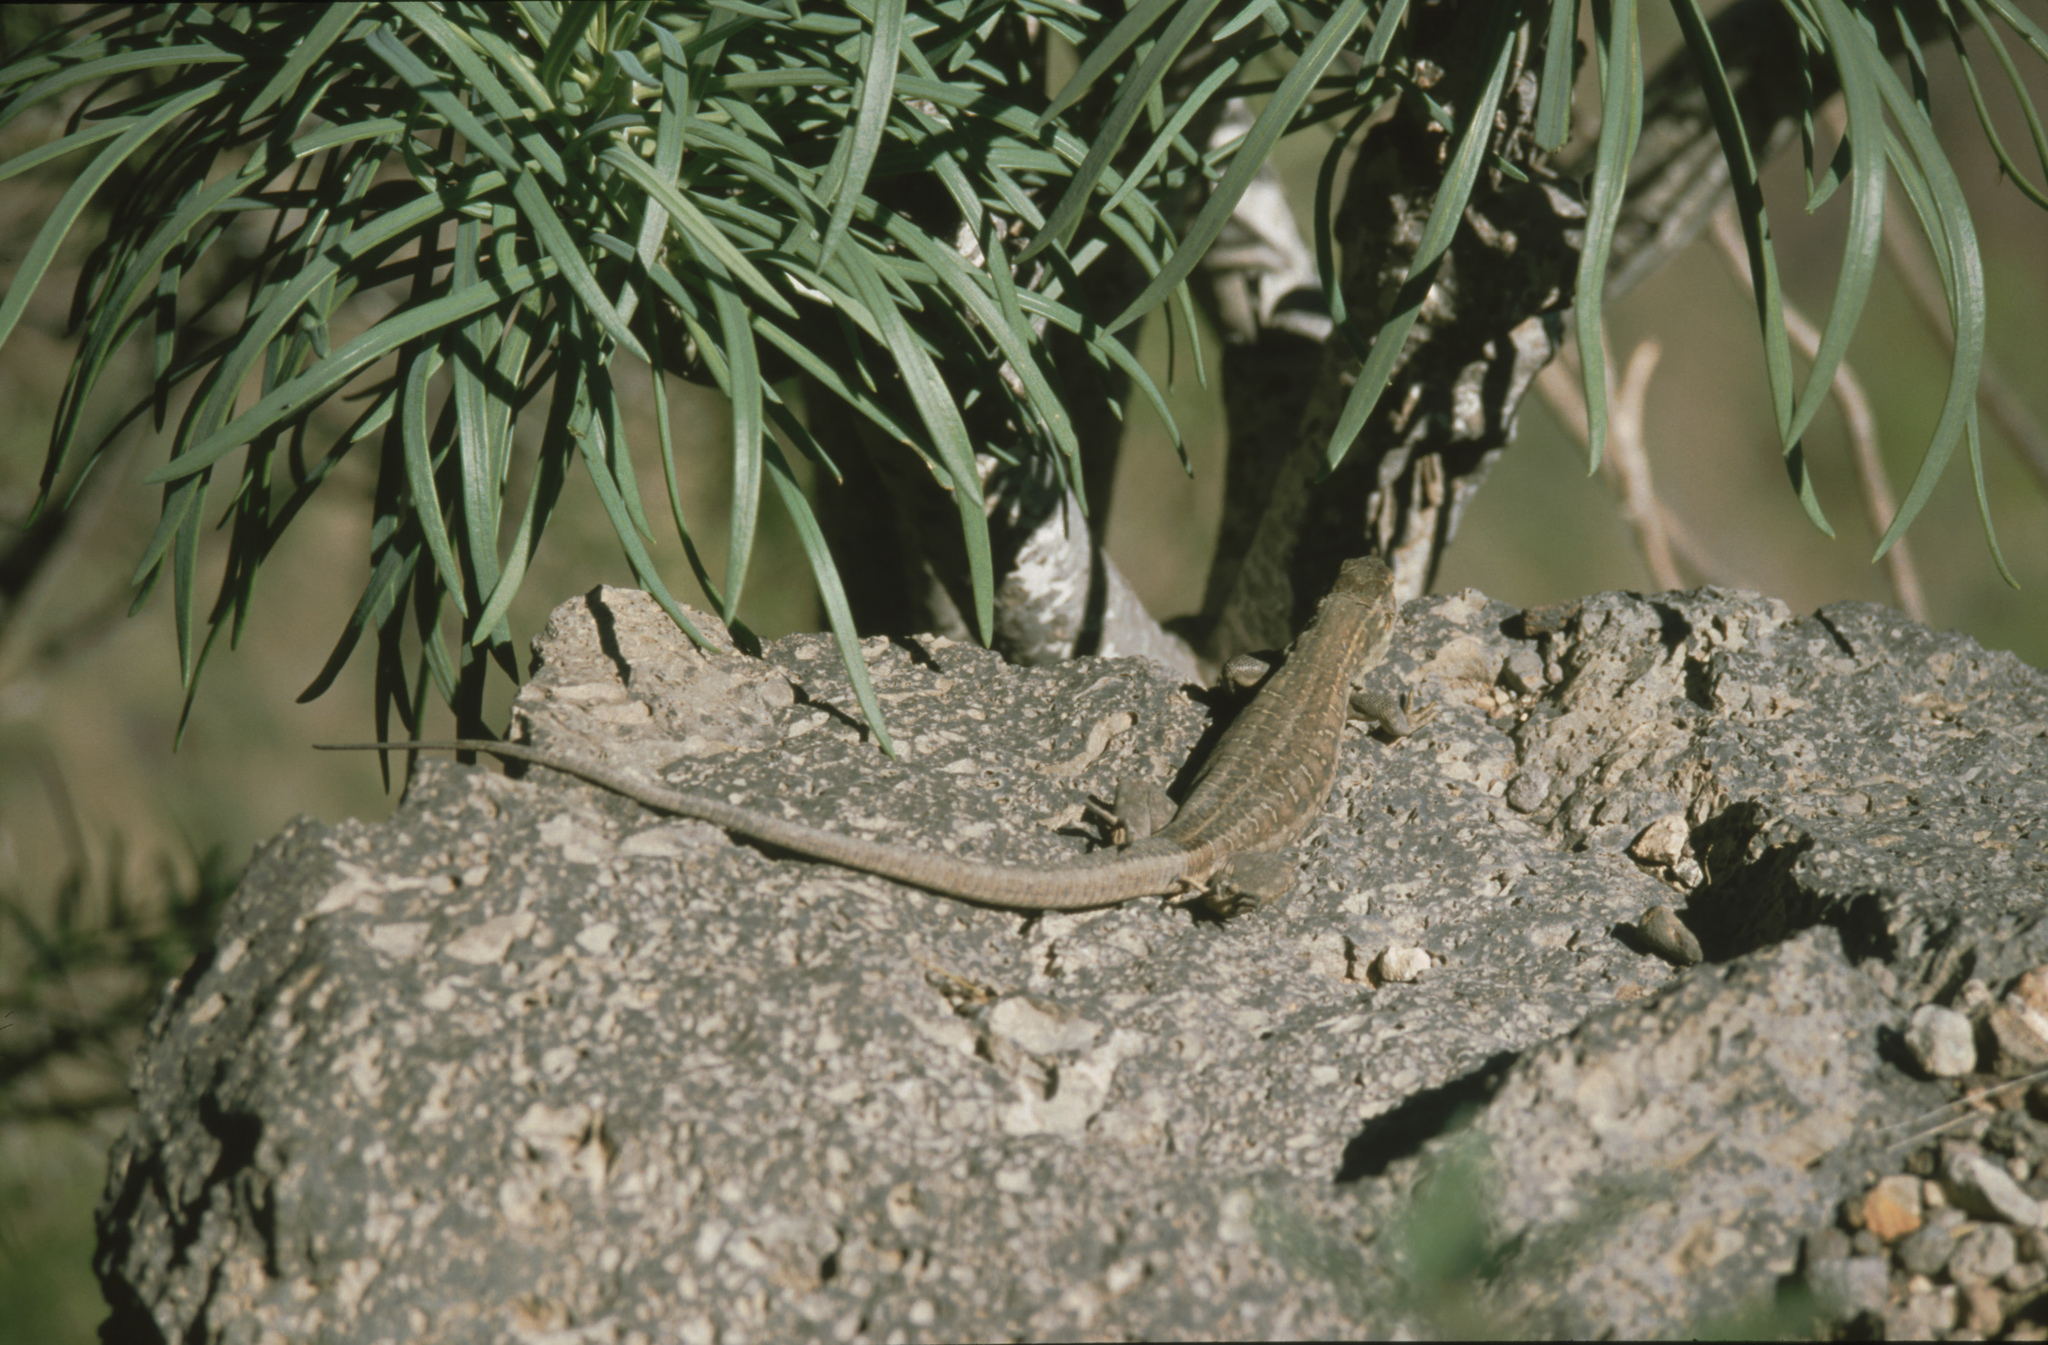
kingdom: Animalia
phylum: Chordata
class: Squamata
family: Lacertidae
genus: Gallotia
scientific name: Gallotia galloti
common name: Gallot's lizard
